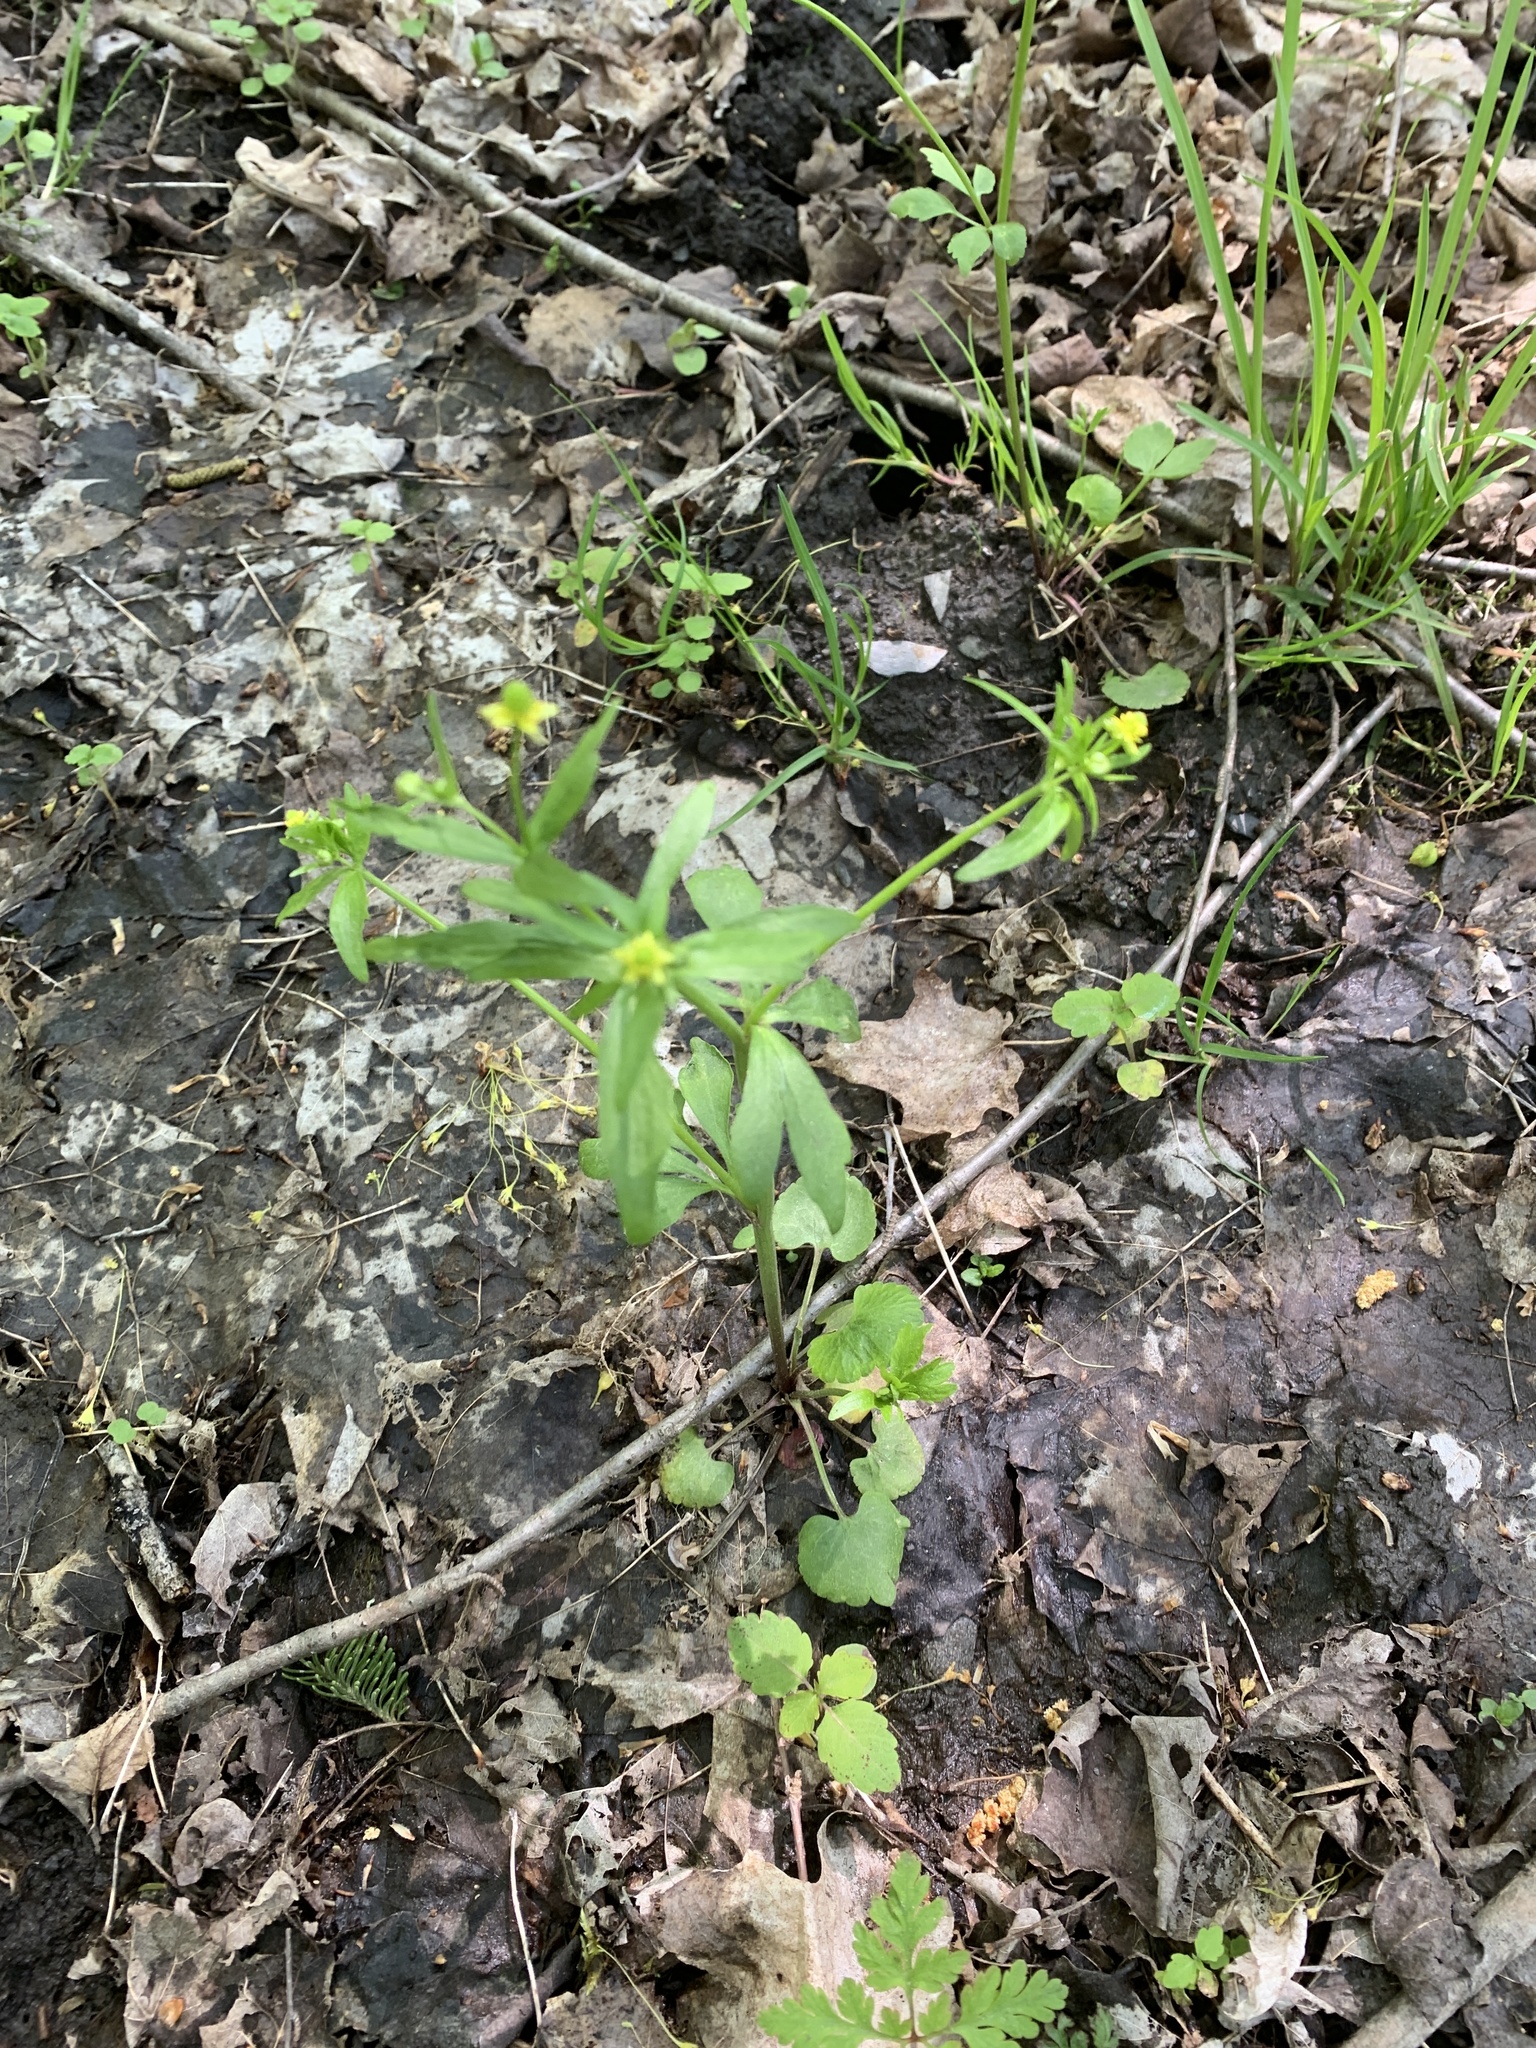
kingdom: Plantae
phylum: Tracheophyta
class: Magnoliopsida
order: Ranunculales
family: Ranunculaceae
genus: Ranunculus
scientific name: Ranunculus abortivus
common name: Early wood buttercup
